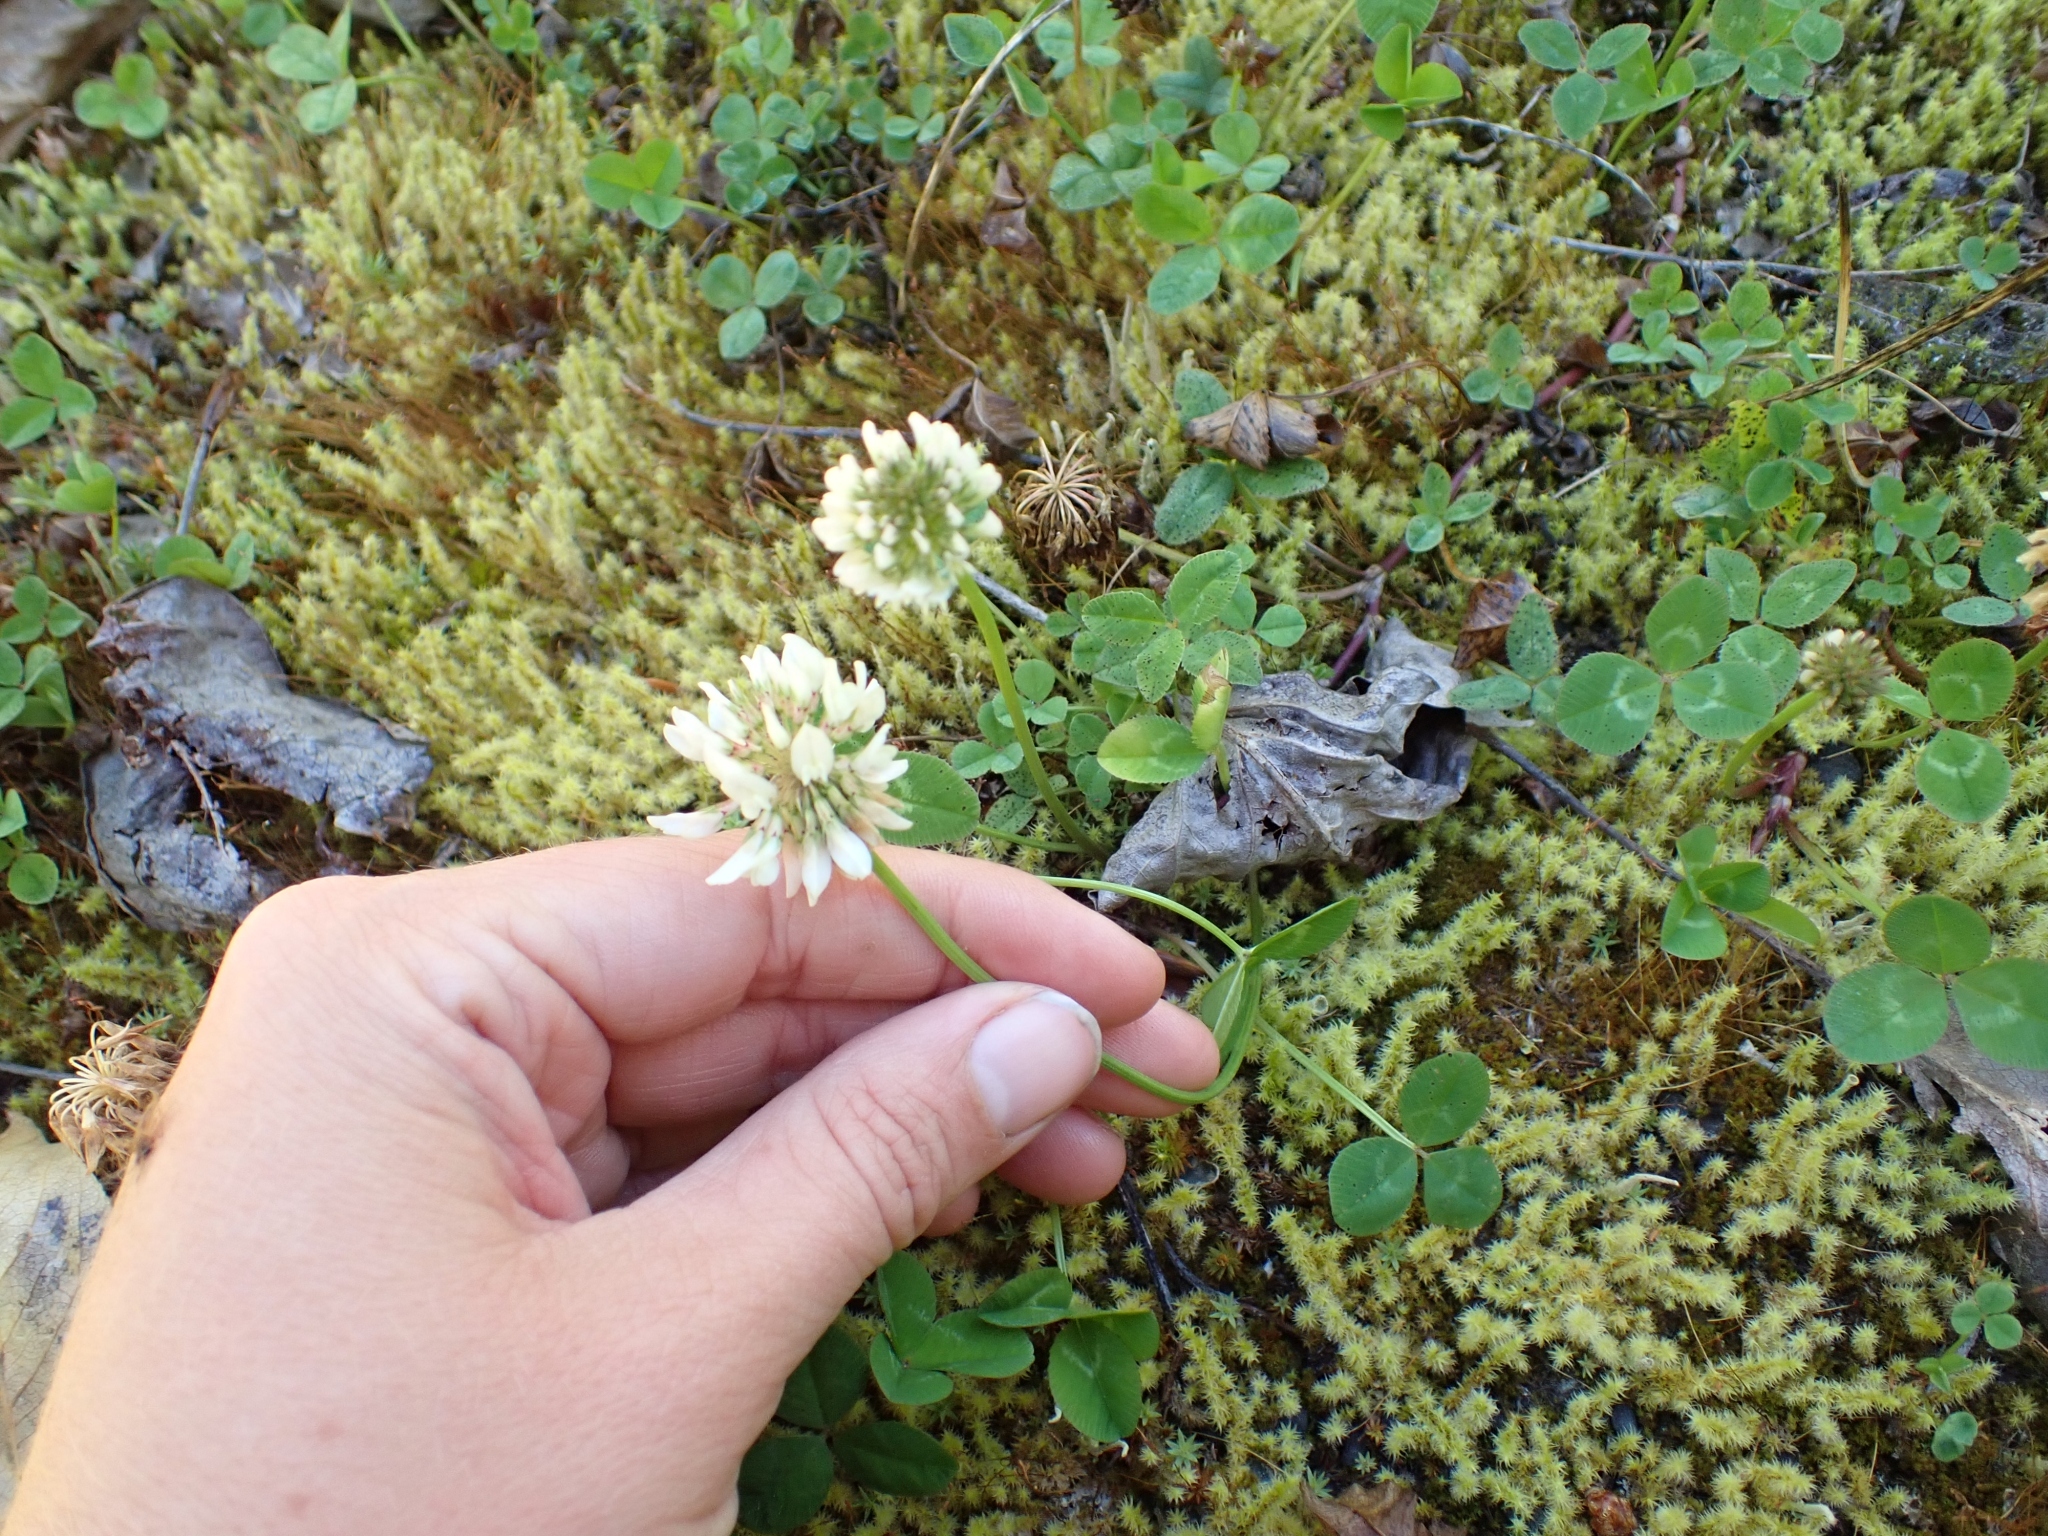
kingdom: Plantae
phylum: Tracheophyta
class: Magnoliopsida
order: Fabales
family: Fabaceae
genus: Trifolium
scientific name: Trifolium repens
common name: White clover
